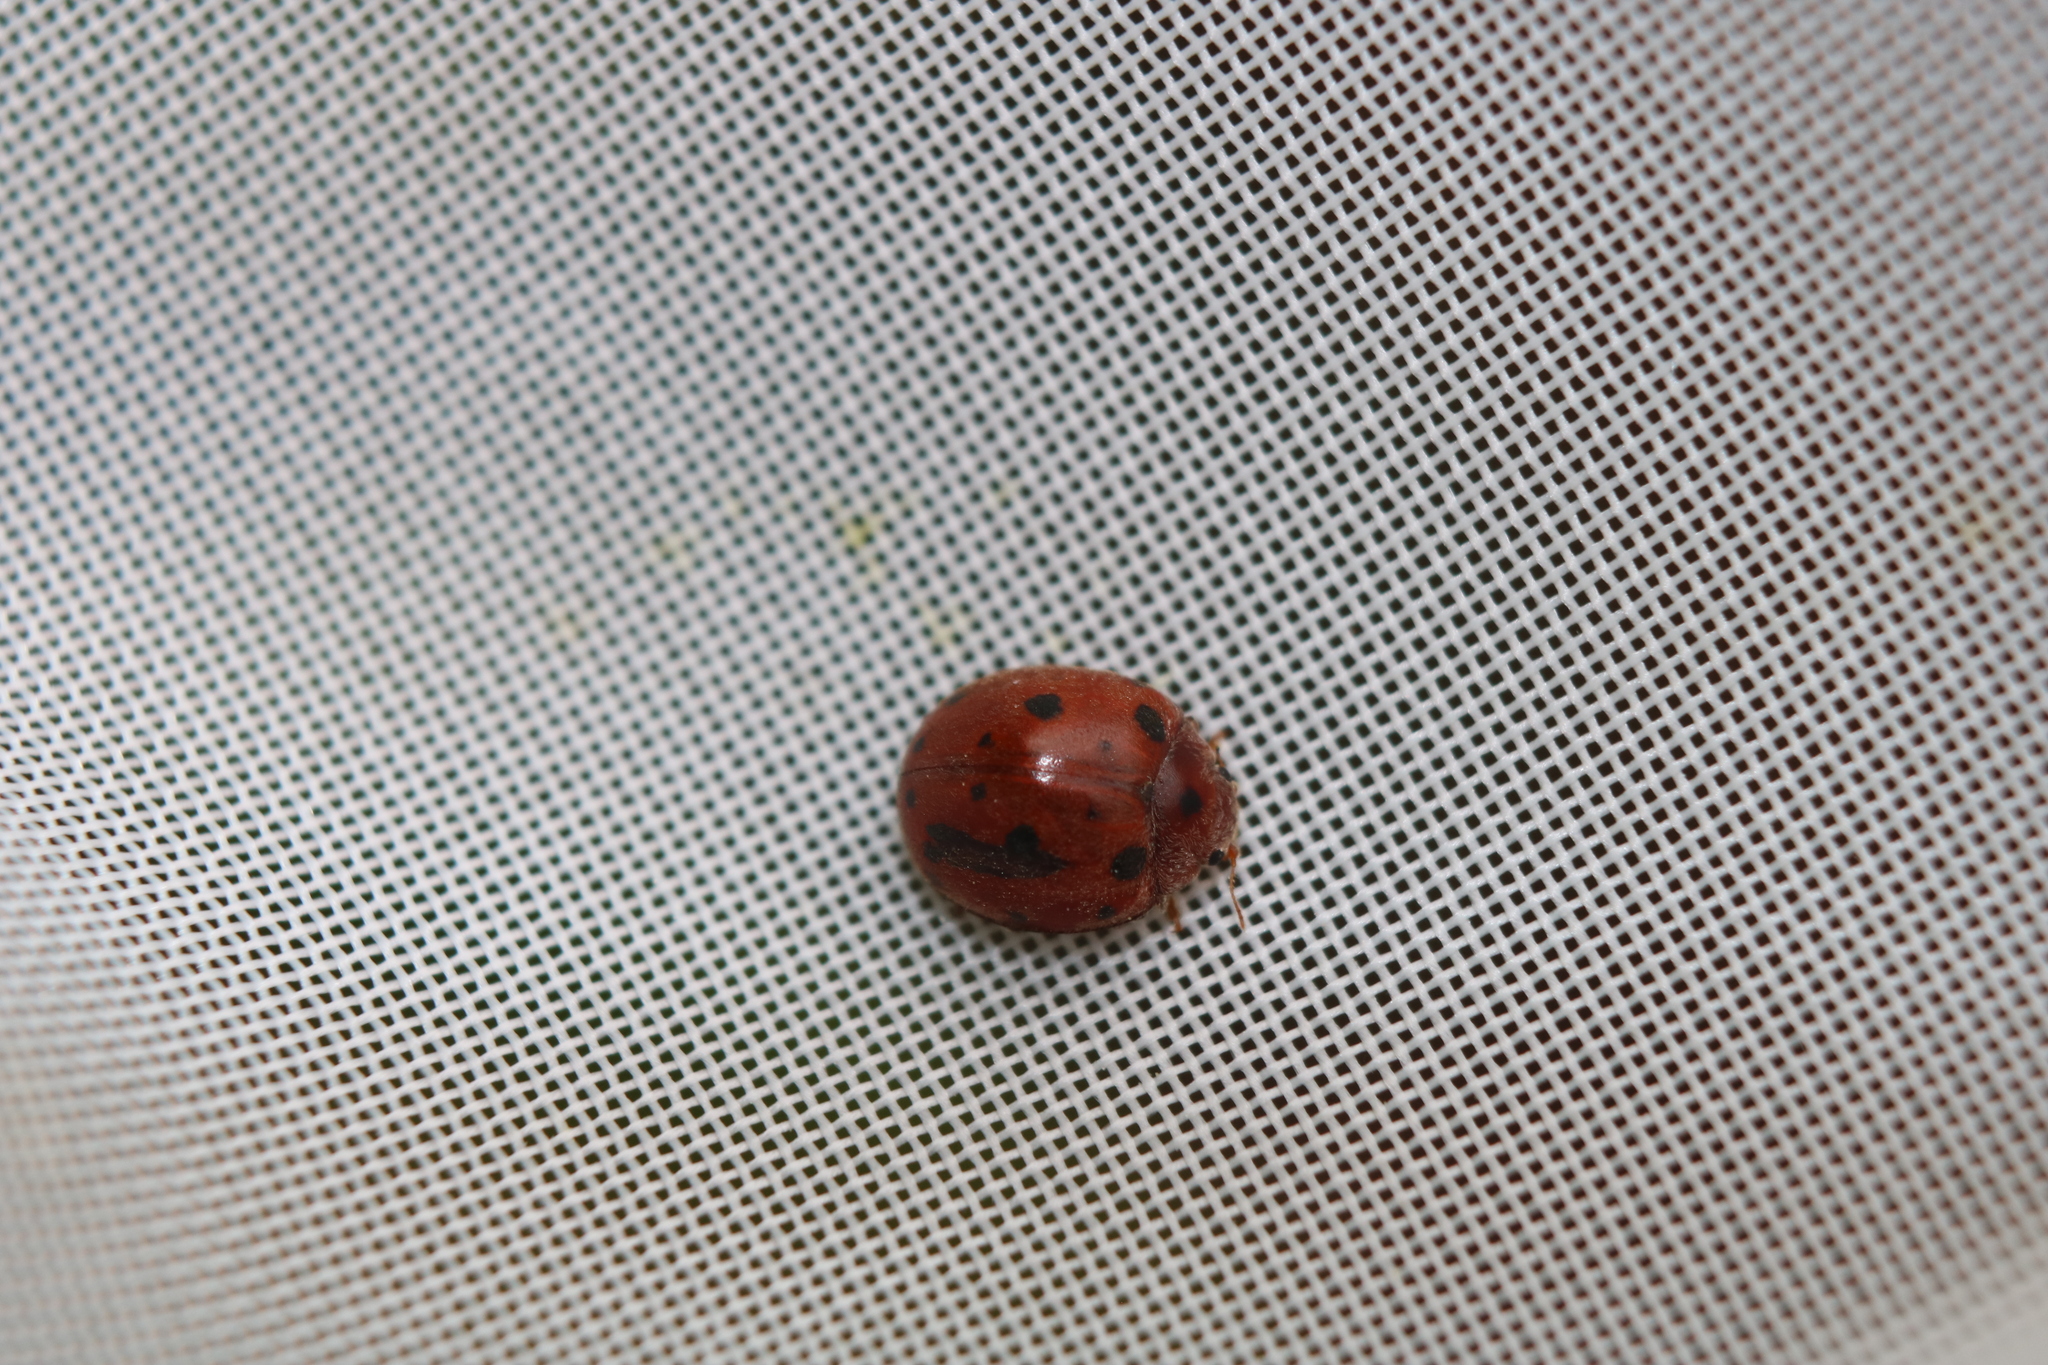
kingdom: Animalia
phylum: Arthropoda
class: Insecta
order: Coleoptera
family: Coccinellidae
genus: Subcoccinella
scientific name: Subcoccinella vigintiquatuorpunctata
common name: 24-spot ladybird
